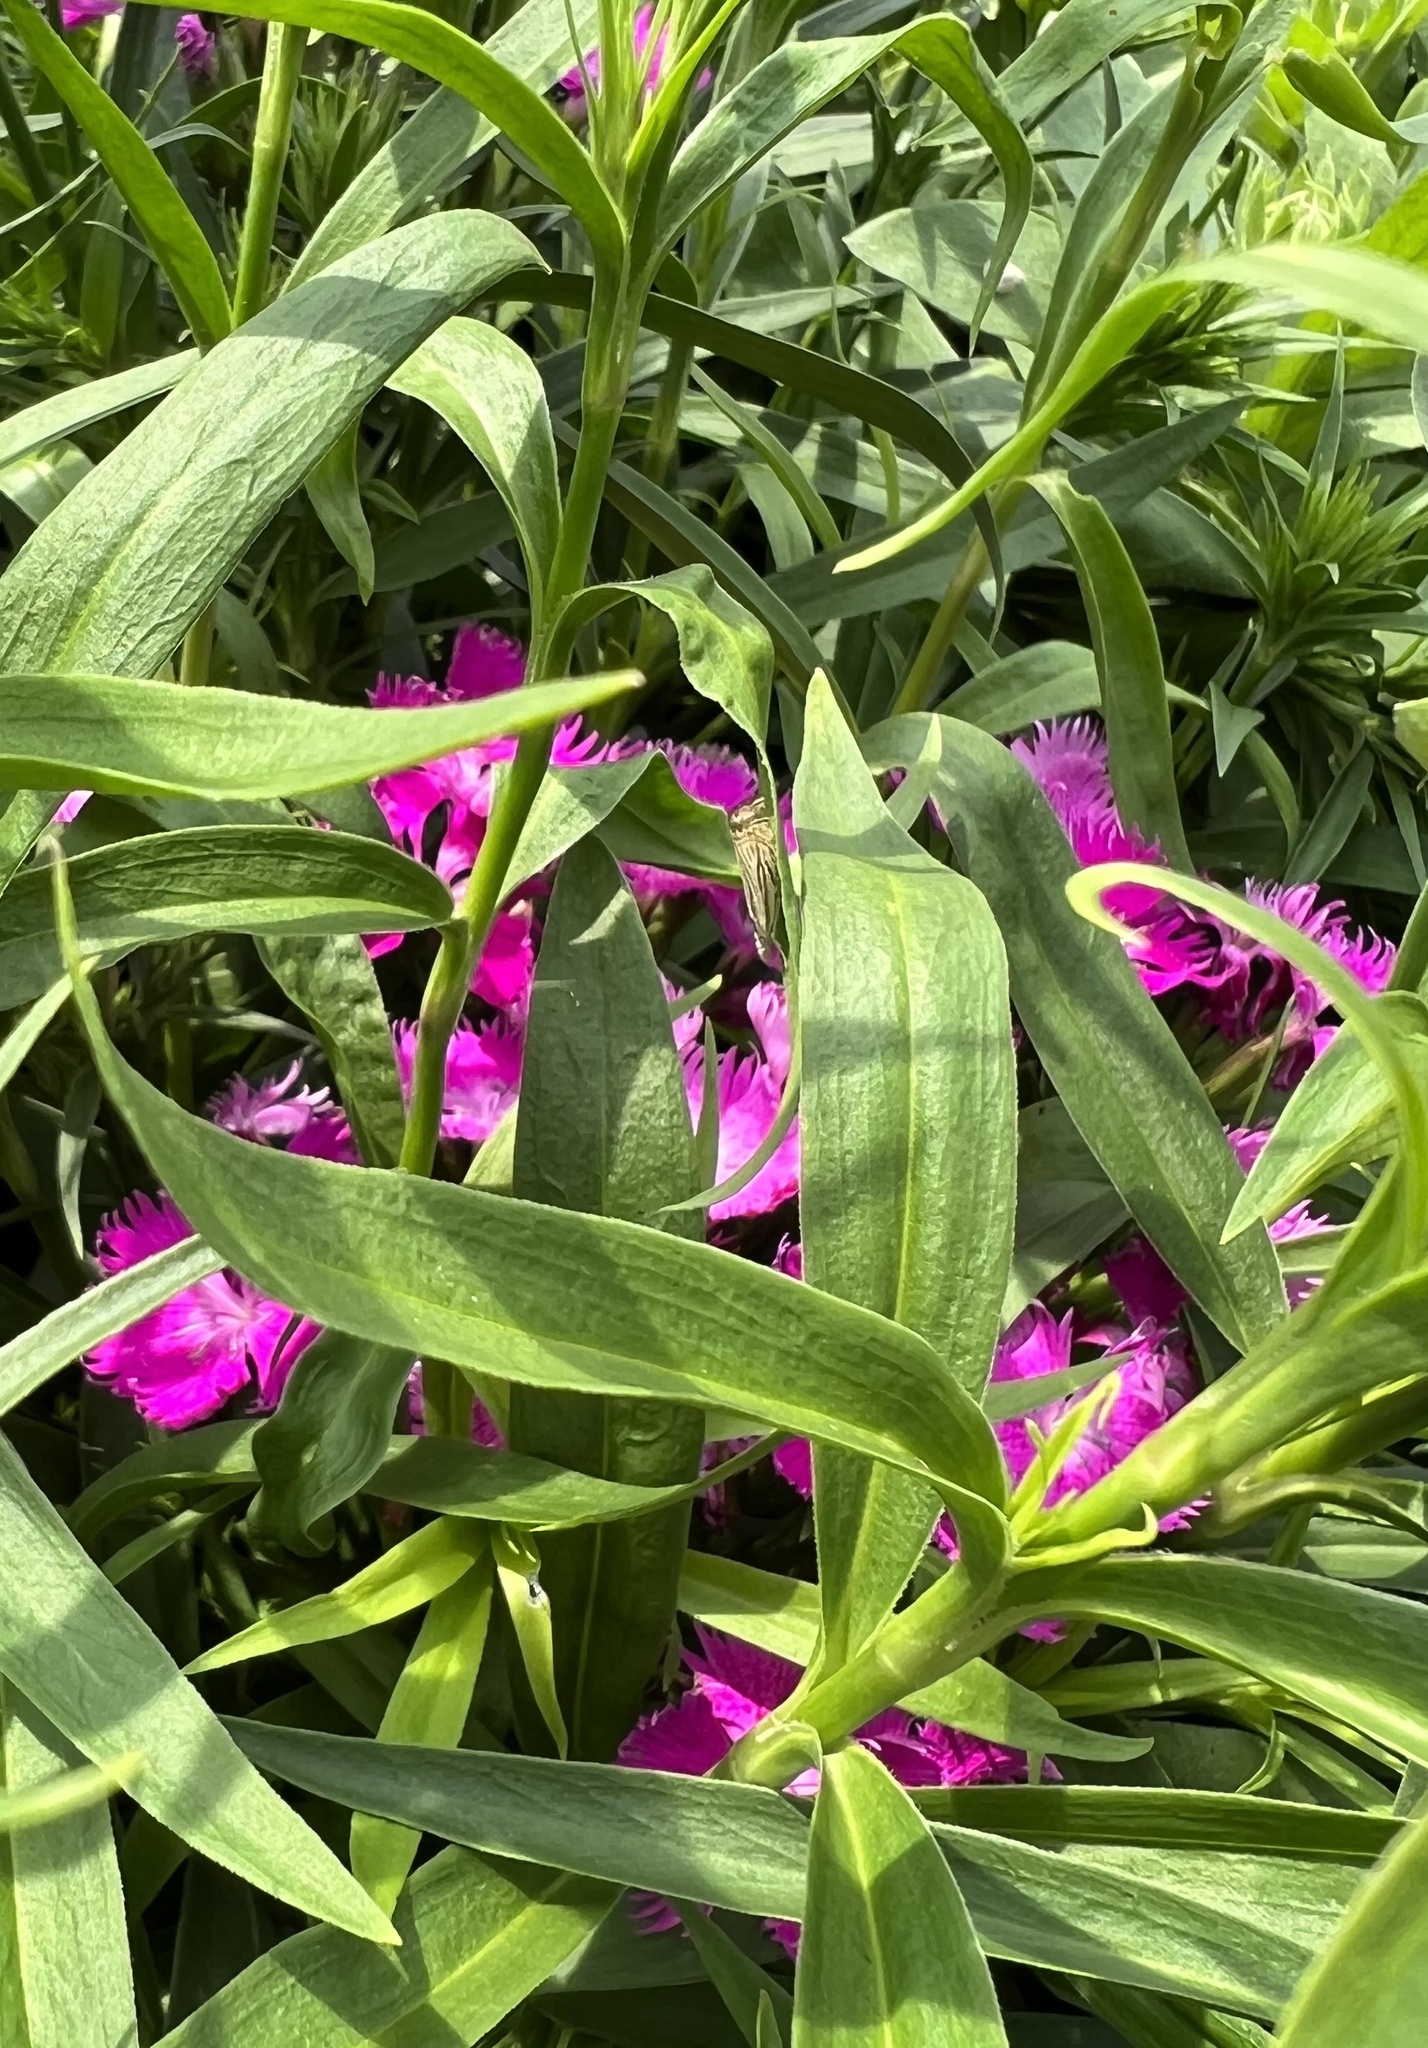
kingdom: Animalia
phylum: Arthropoda
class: Insecta
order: Lepidoptera
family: Crambidae
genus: Chrysoteuchia
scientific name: Chrysoteuchia topiarius
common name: Topiary grass-veneer
